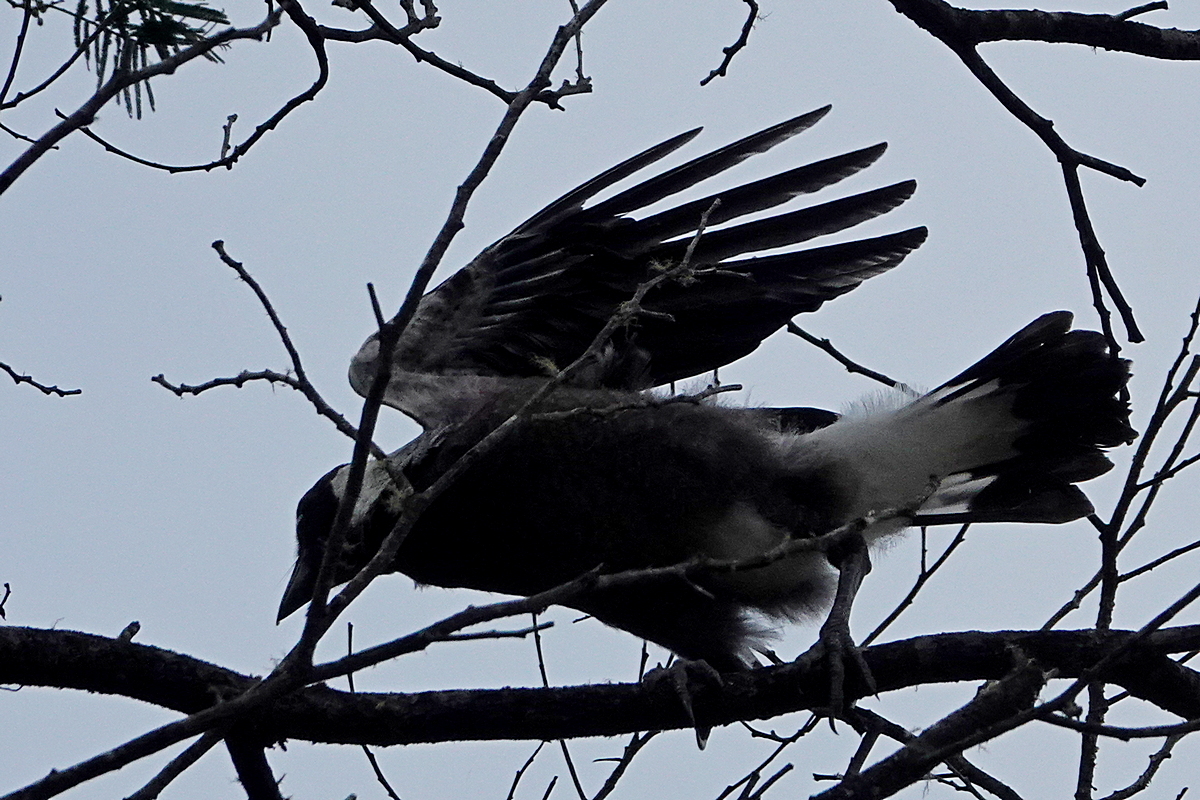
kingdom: Animalia
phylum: Chordata
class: Aves
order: Passeriformes
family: Cracticidae
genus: Gymnorhina
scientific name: Gymnorhina tibicen
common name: Australian magpie
